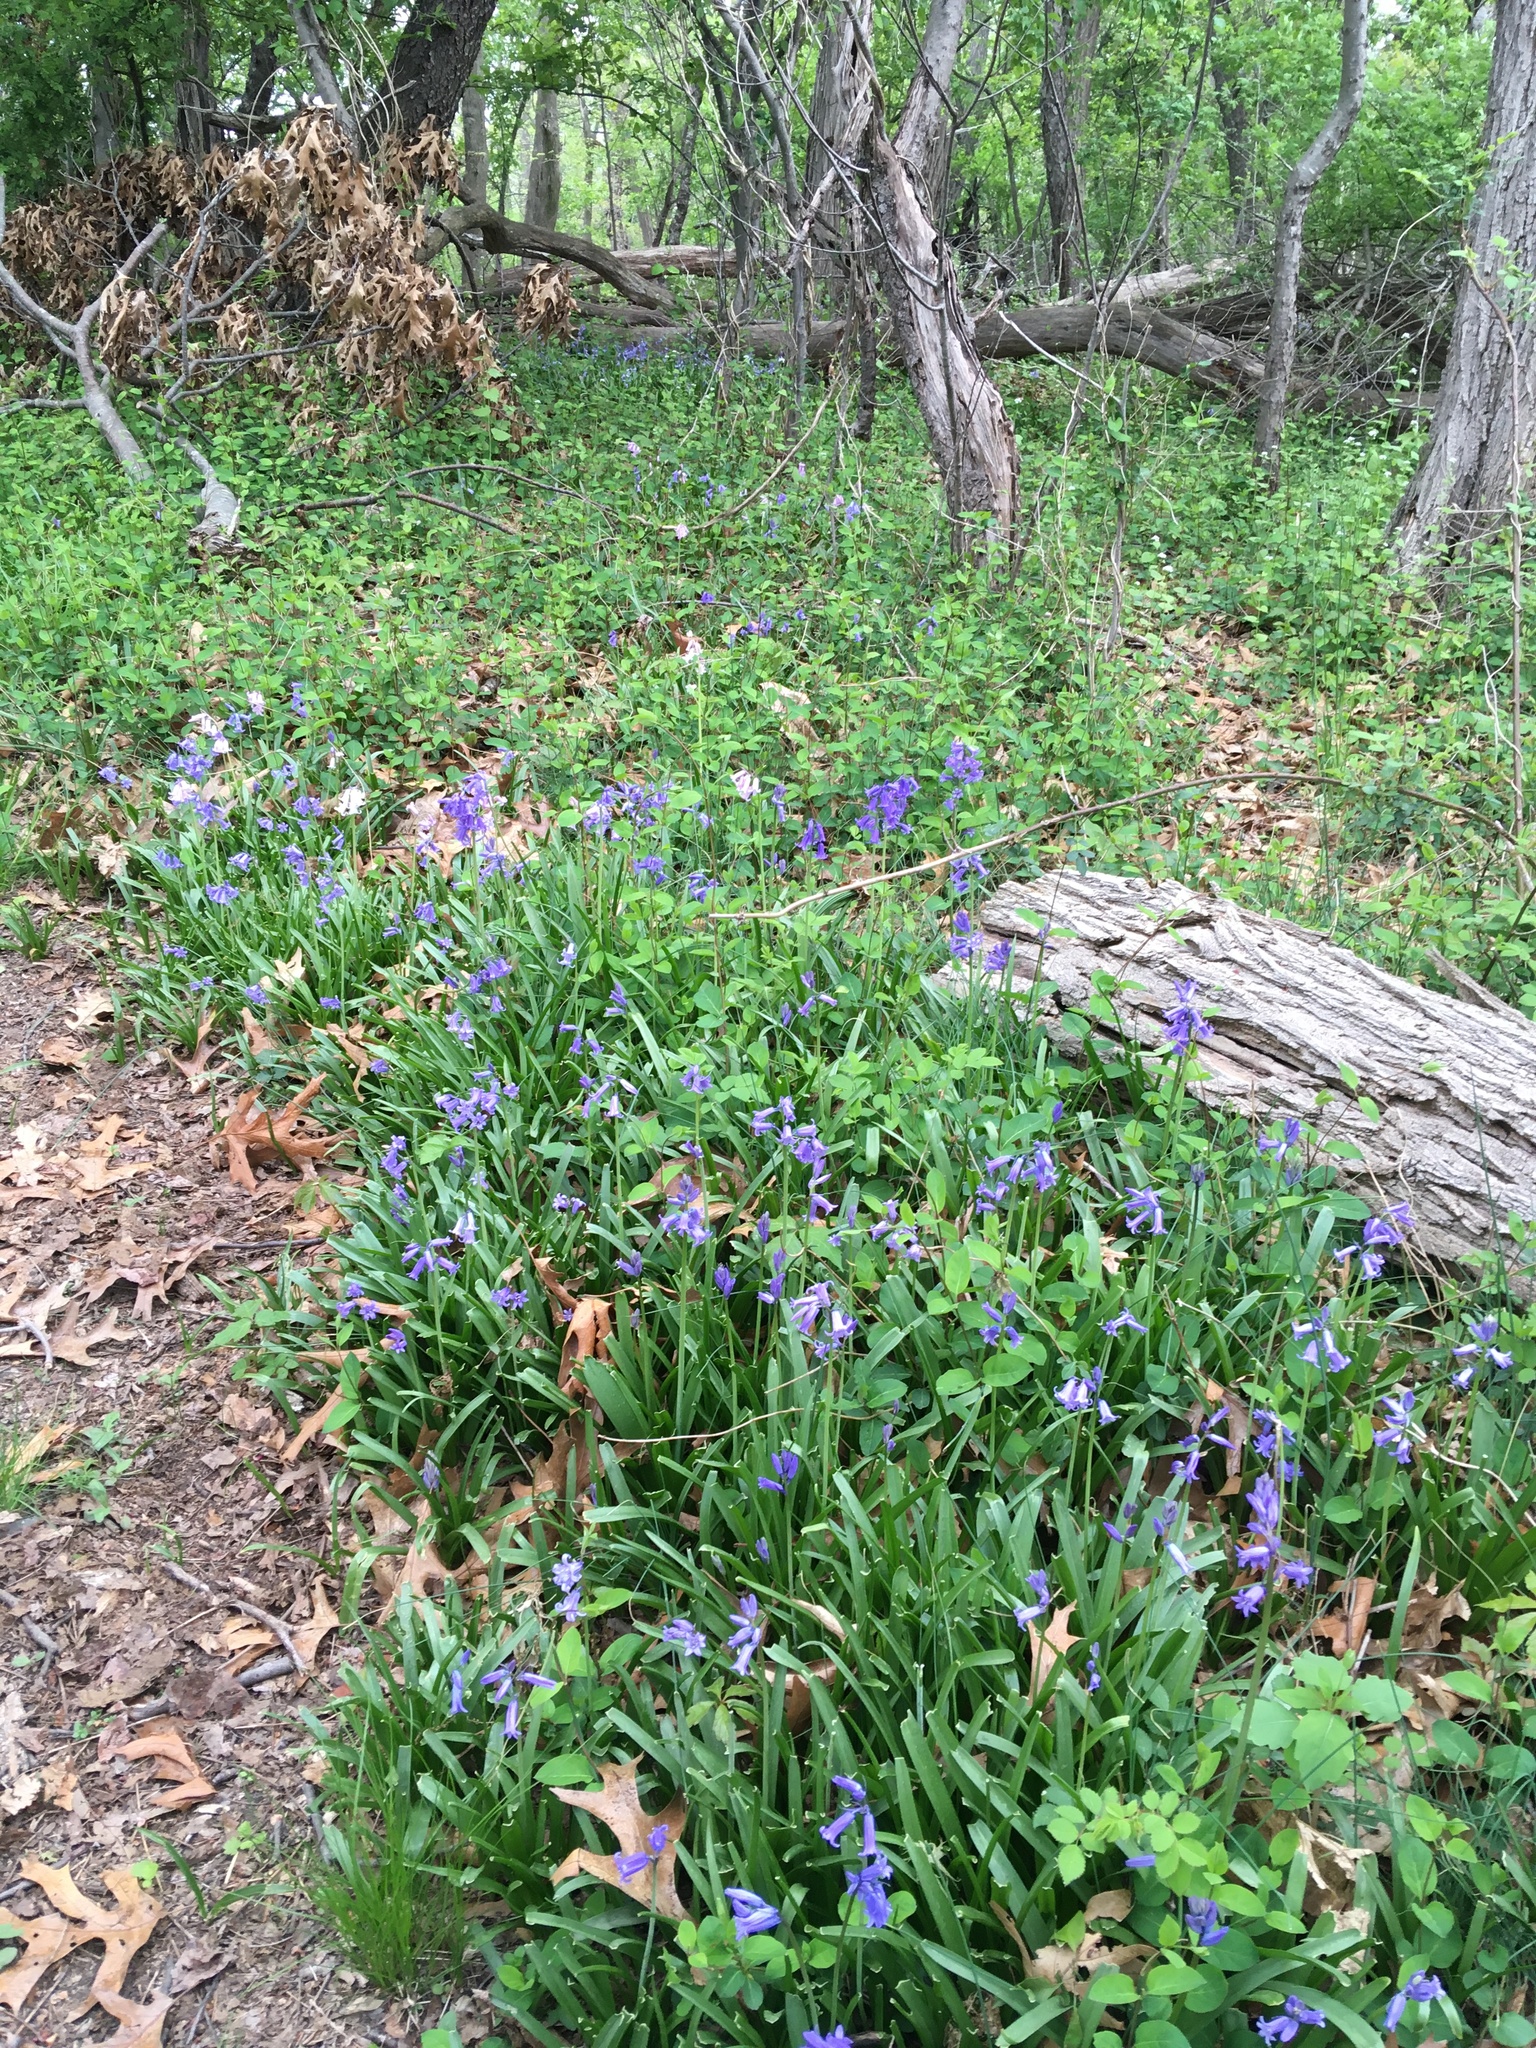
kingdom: Plantae
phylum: Tracheophyta
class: Liliopsida
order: Asparagales
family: Asparagaceae
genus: Hyacinthoides
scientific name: Hyacinthoides massartiana
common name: Hyacinthoides
